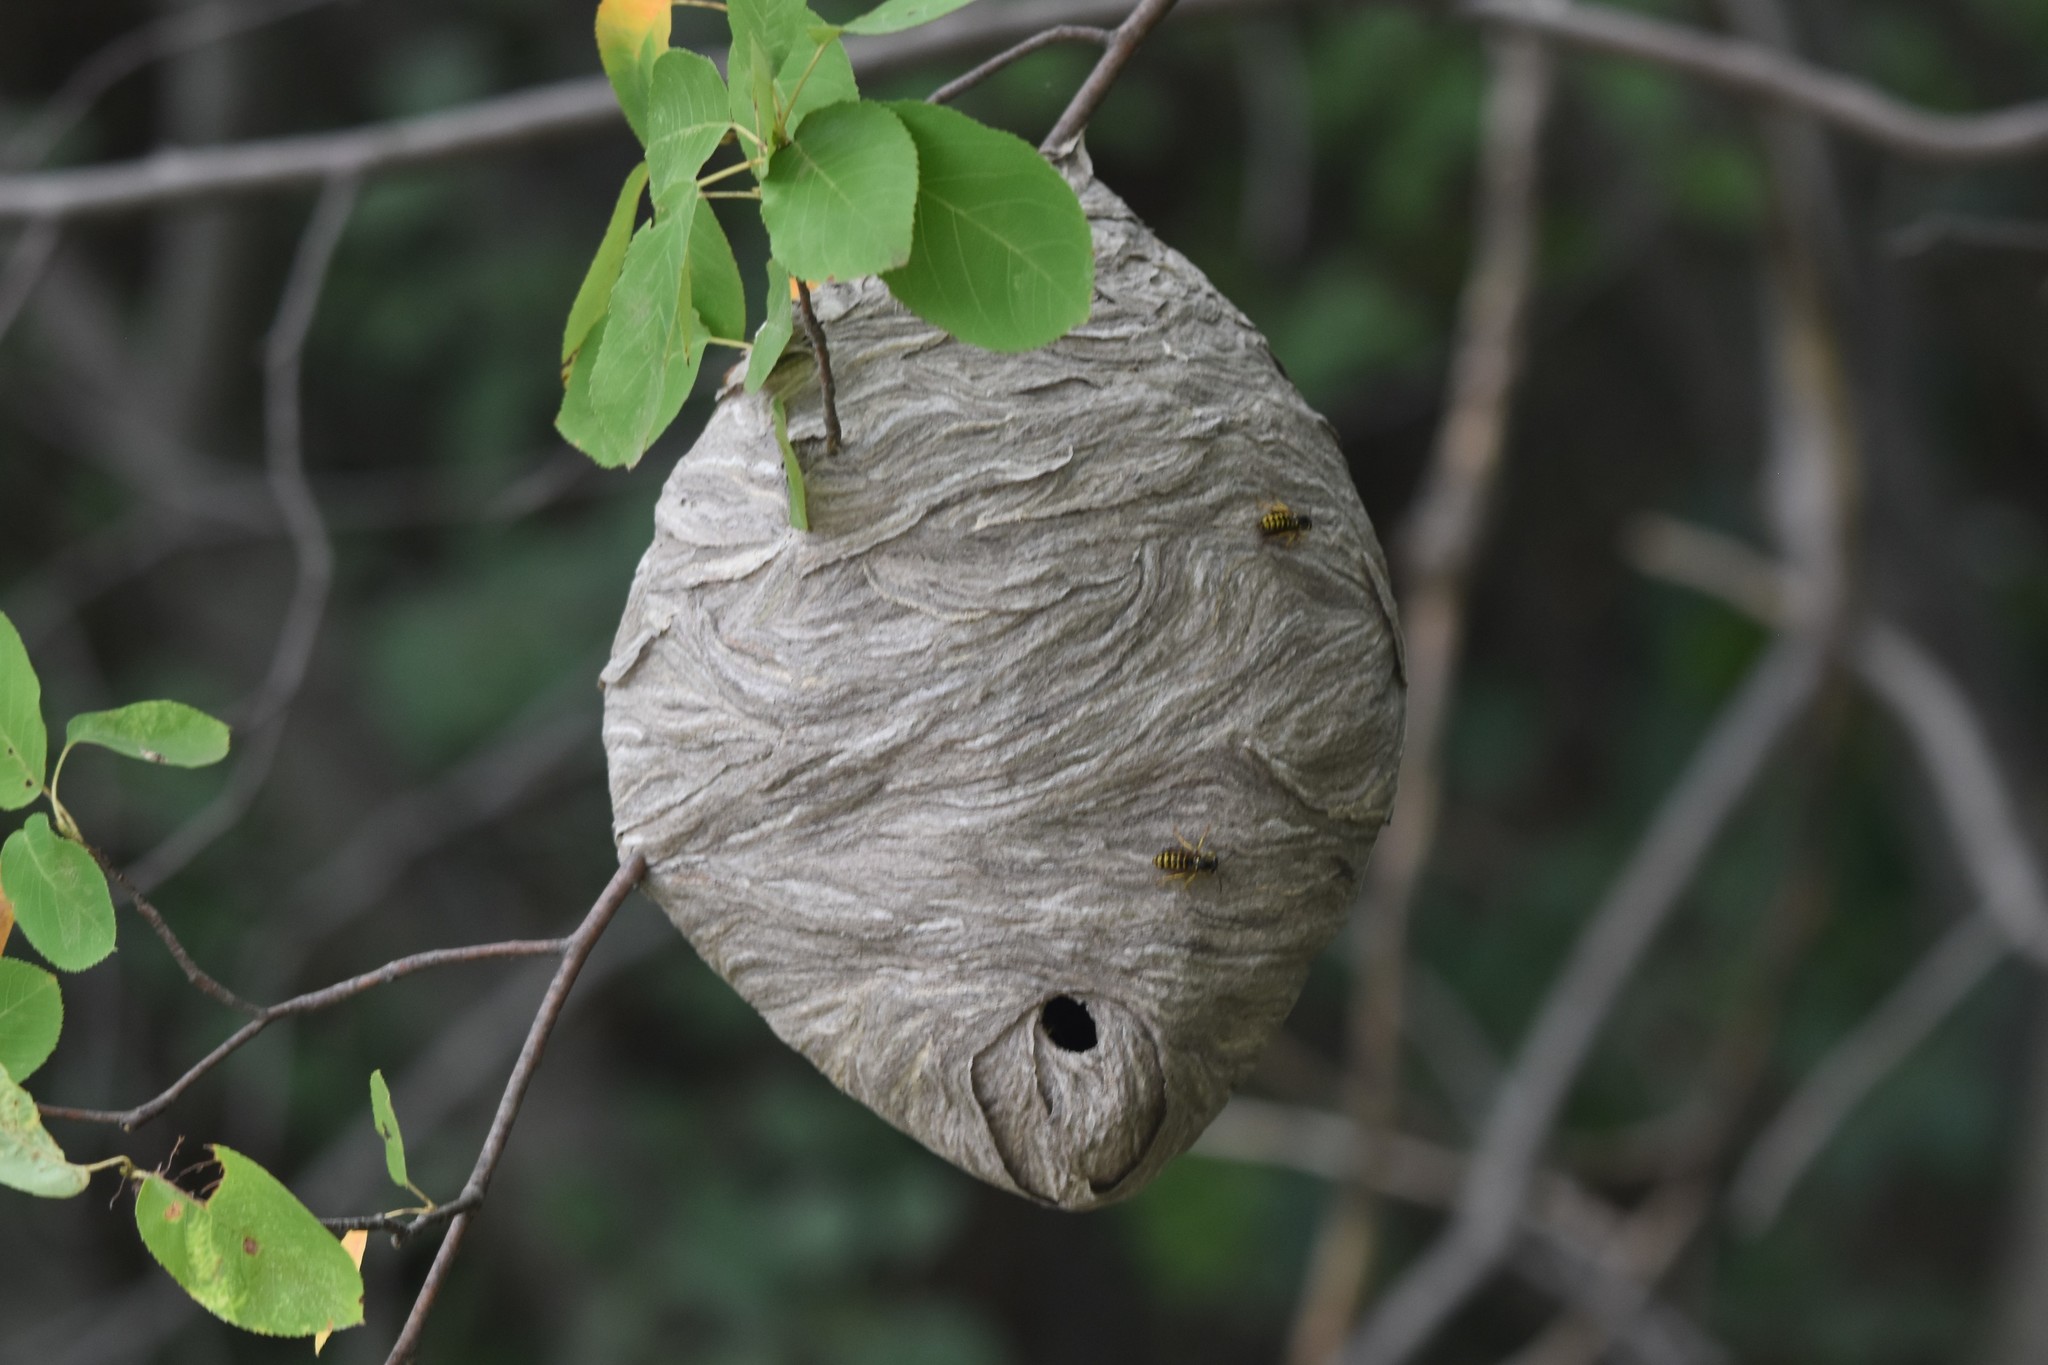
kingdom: Animalia
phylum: Arthropoda
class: Insecta
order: Hymenoptera
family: Vespidae
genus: Dolichovespula
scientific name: Dolichovespula arenaria
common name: Aerial yellowjacket
